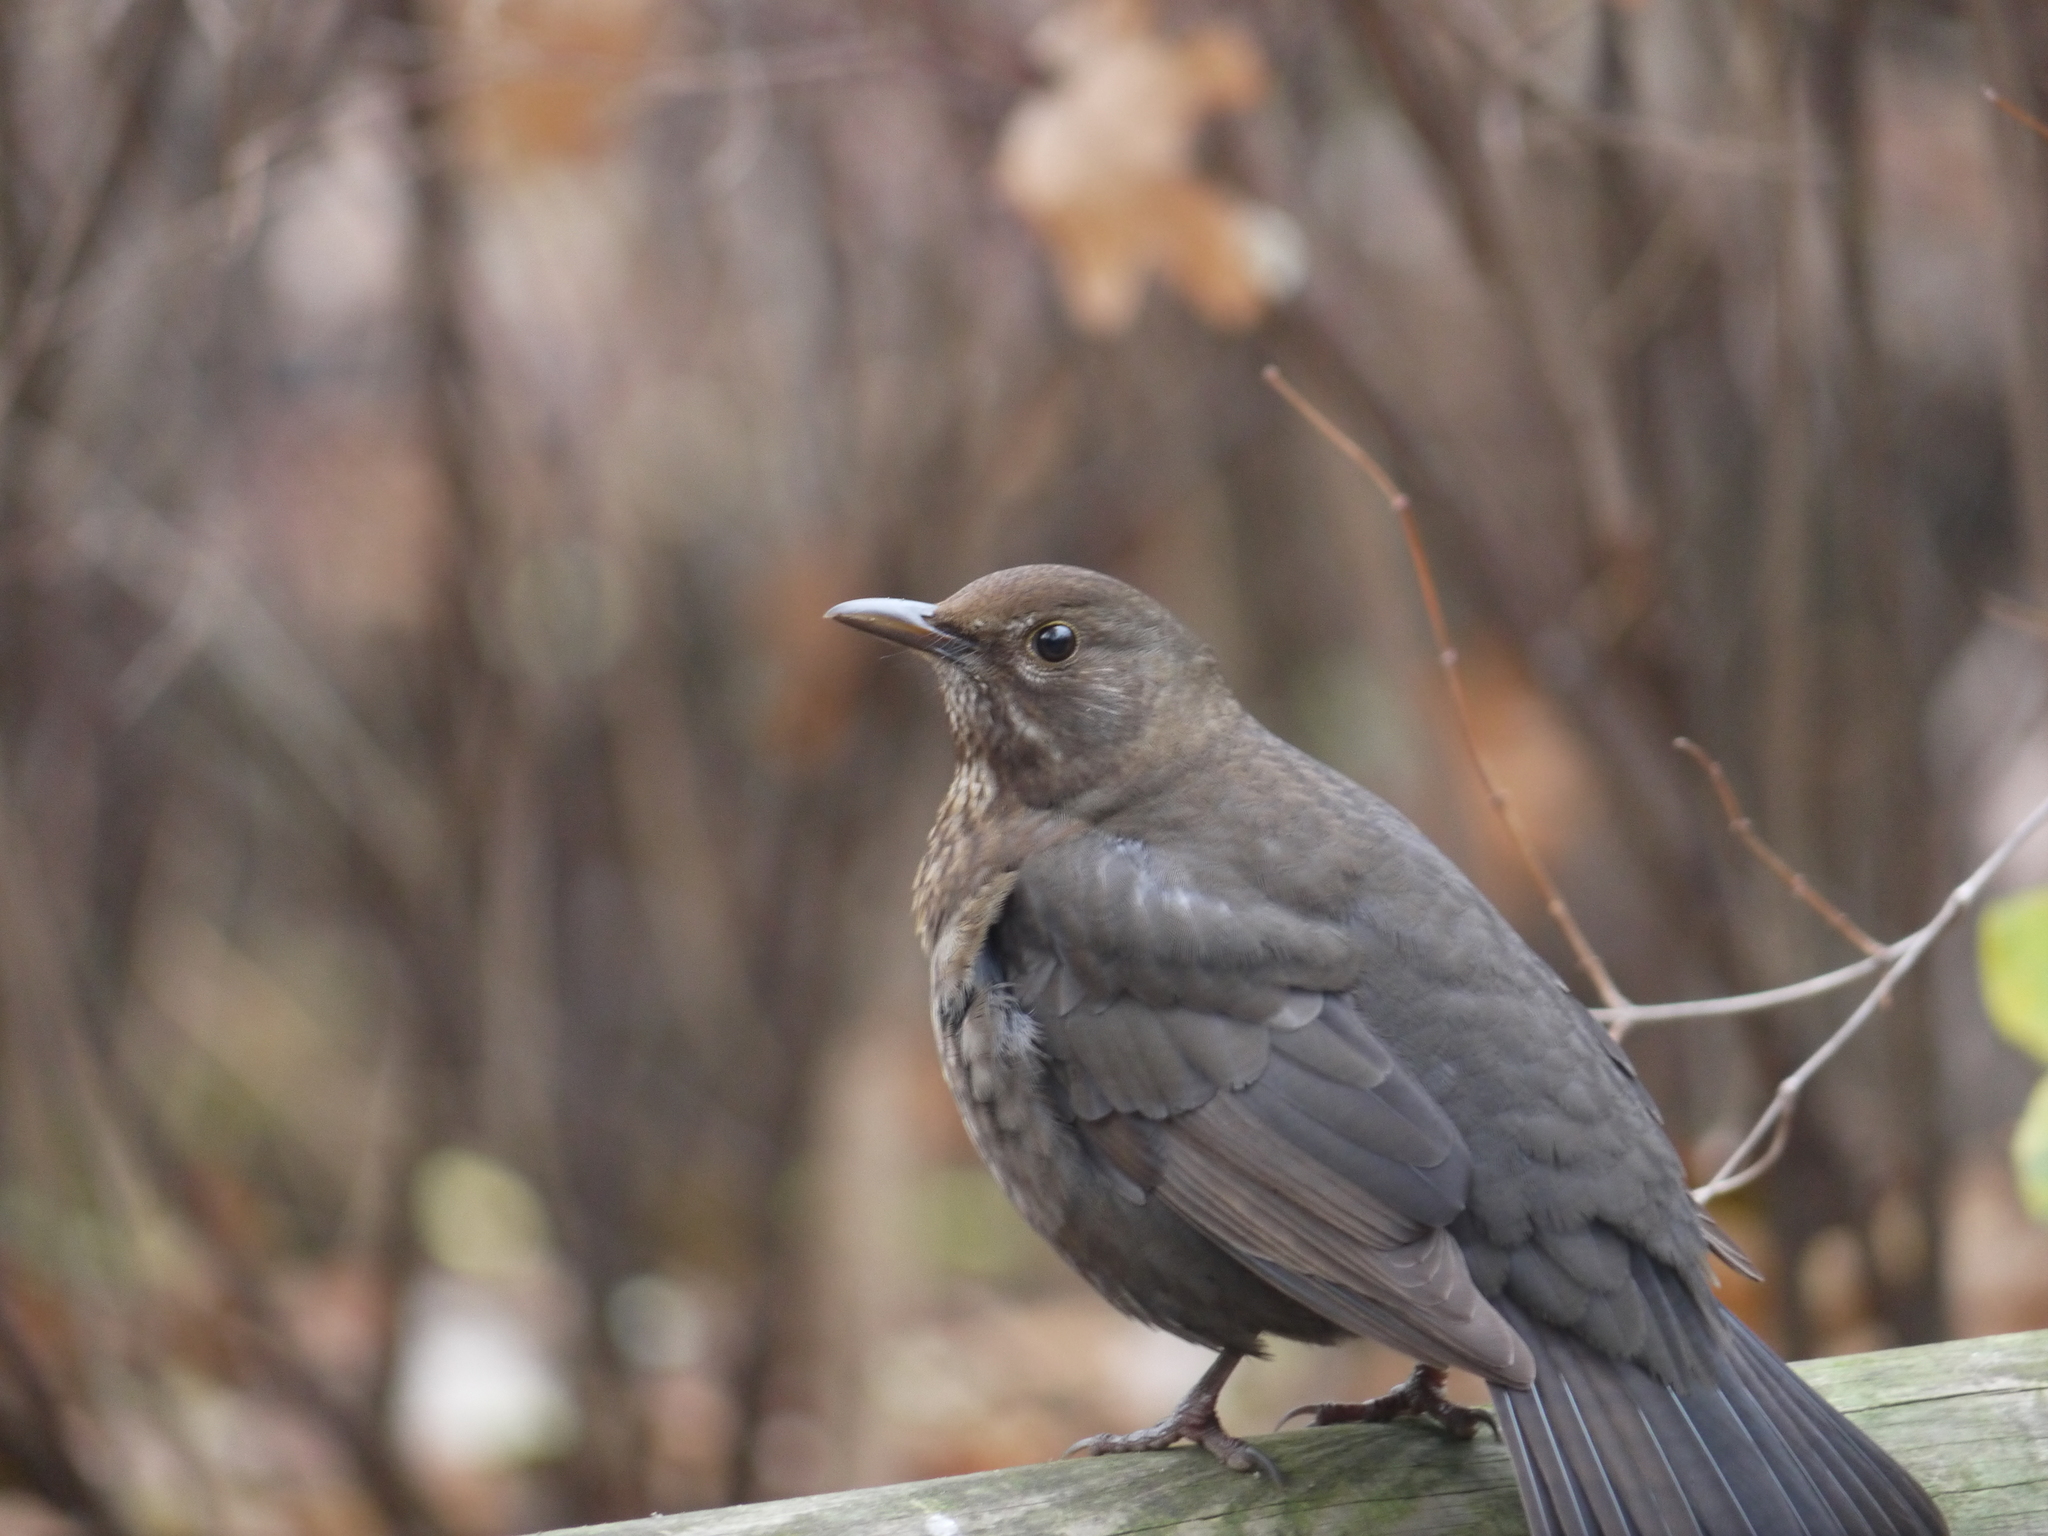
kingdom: Animalia
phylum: Chordata
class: Aves
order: Passeriformes
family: Turdidae
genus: Turdus
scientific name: Turdus merula
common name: Common blackbird
